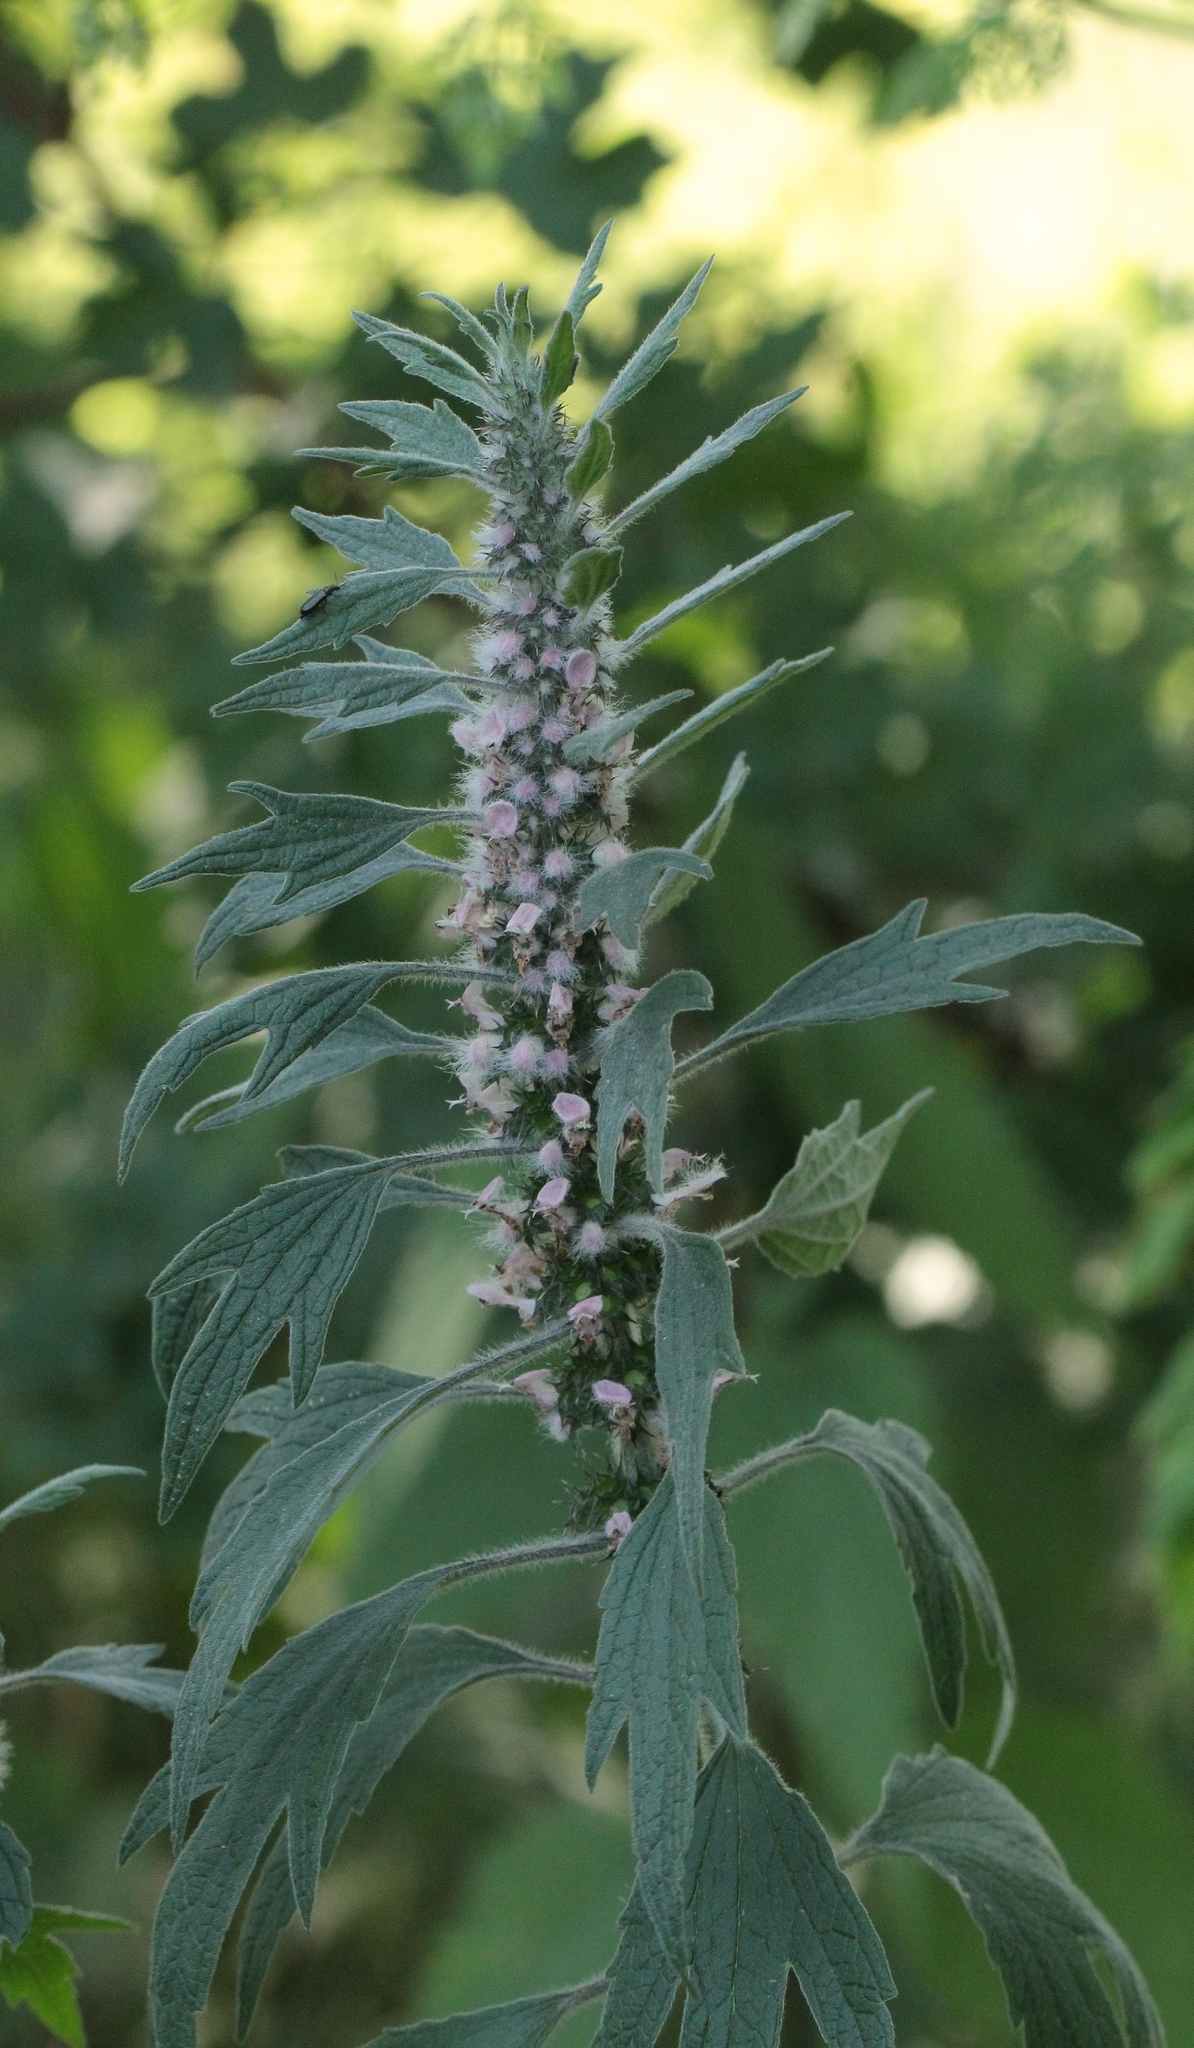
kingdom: Plantae
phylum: Tracheophyta
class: Magnoliopsida
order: Lamiales
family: Lamiaceae
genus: Leonurus
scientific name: Leonurus quinquelobatus
